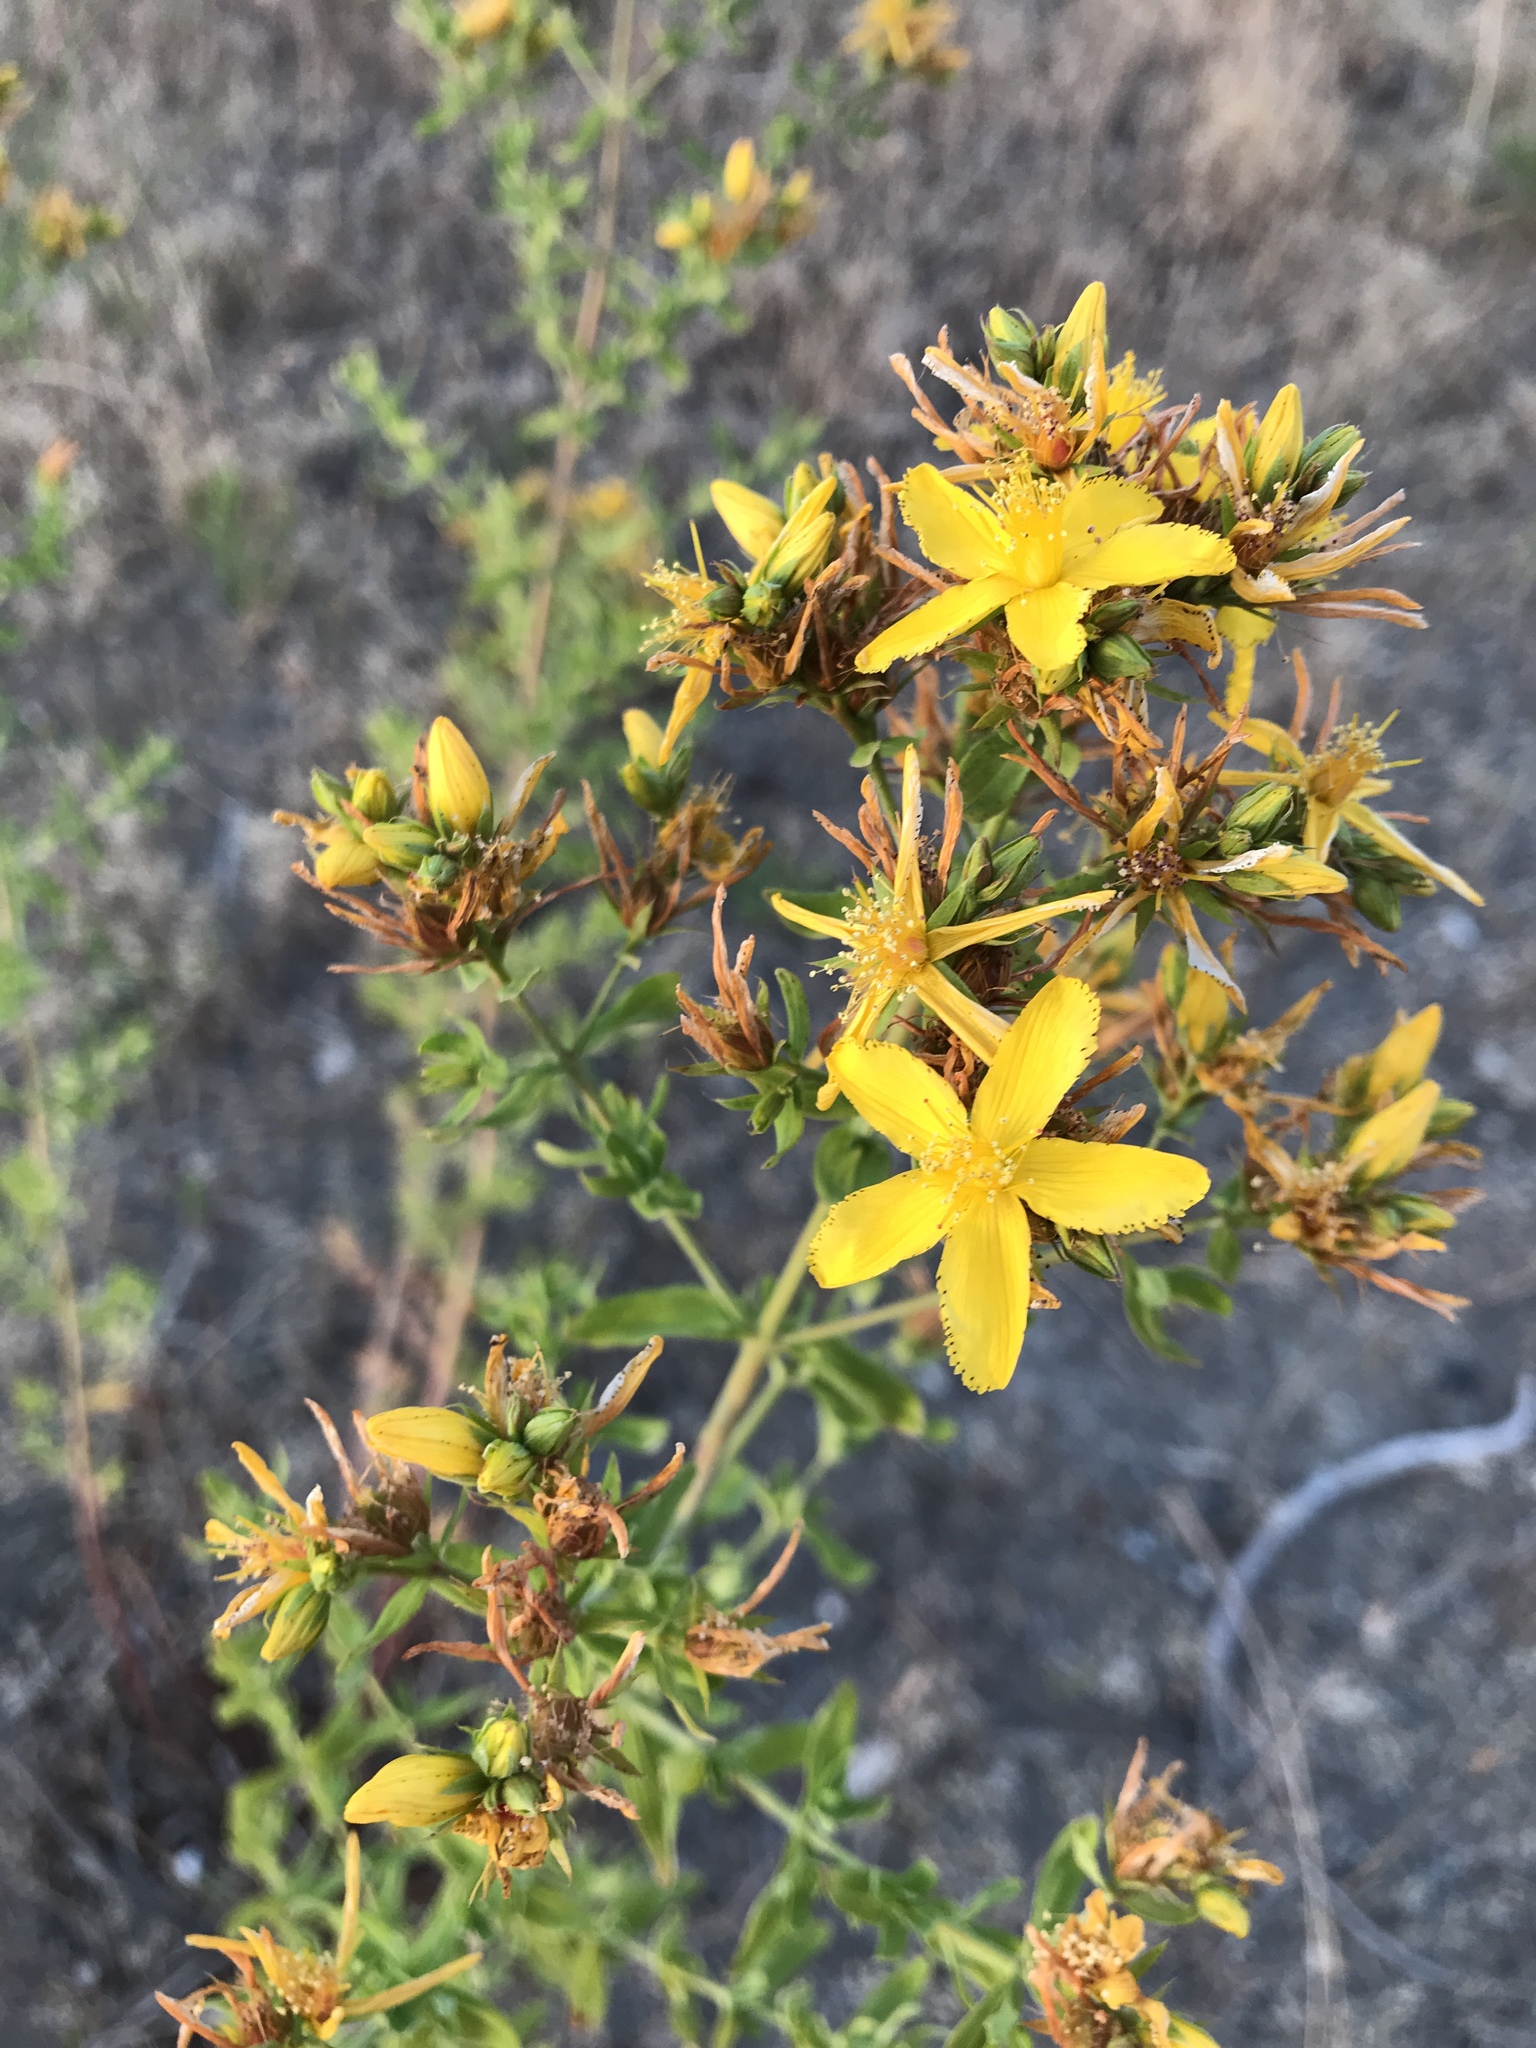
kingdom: Plantae
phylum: Tracheophyta
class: Magnoliopsida
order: Malpighiales
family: Hypericaceae
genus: Hypericum
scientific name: Hypericum perforatum
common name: Common st. johnswort
